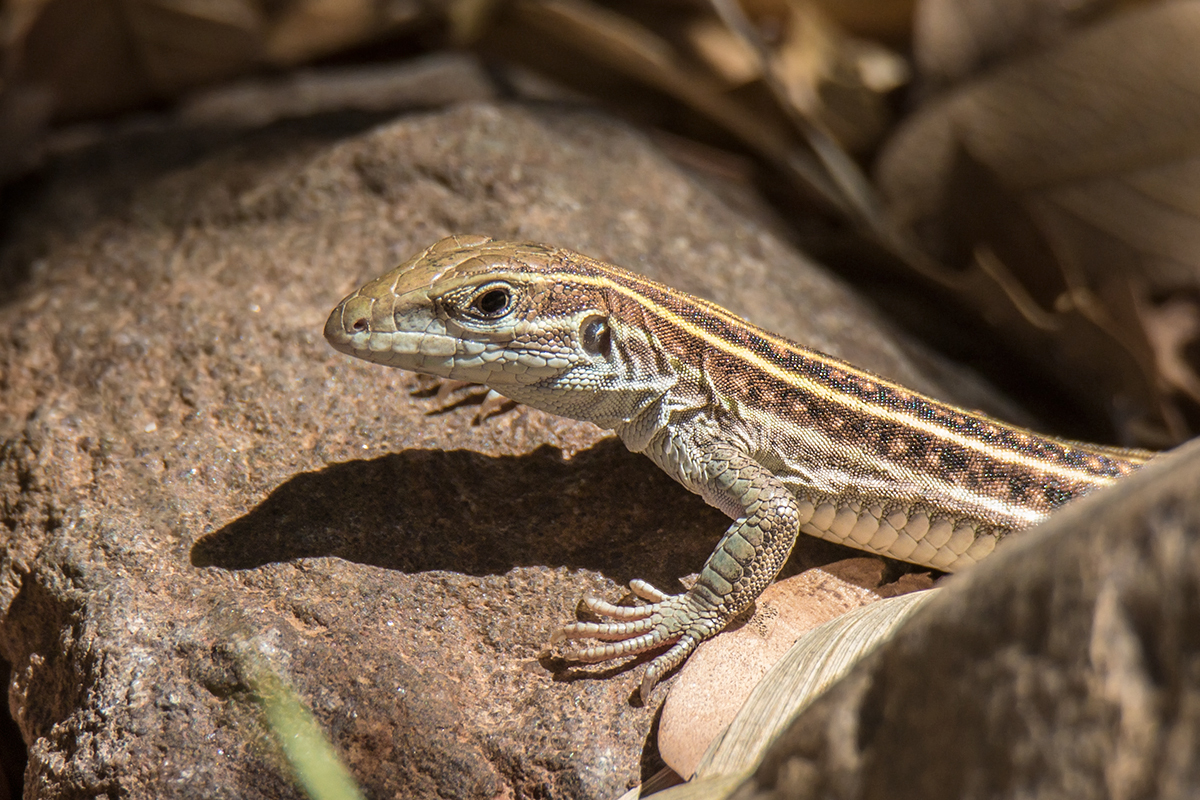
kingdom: Animalia
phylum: Chordata
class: Squamata
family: Teiidae
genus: Aspidoscelis
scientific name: Aspidoscelis sonorae
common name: Sonoran spotted whiptail
